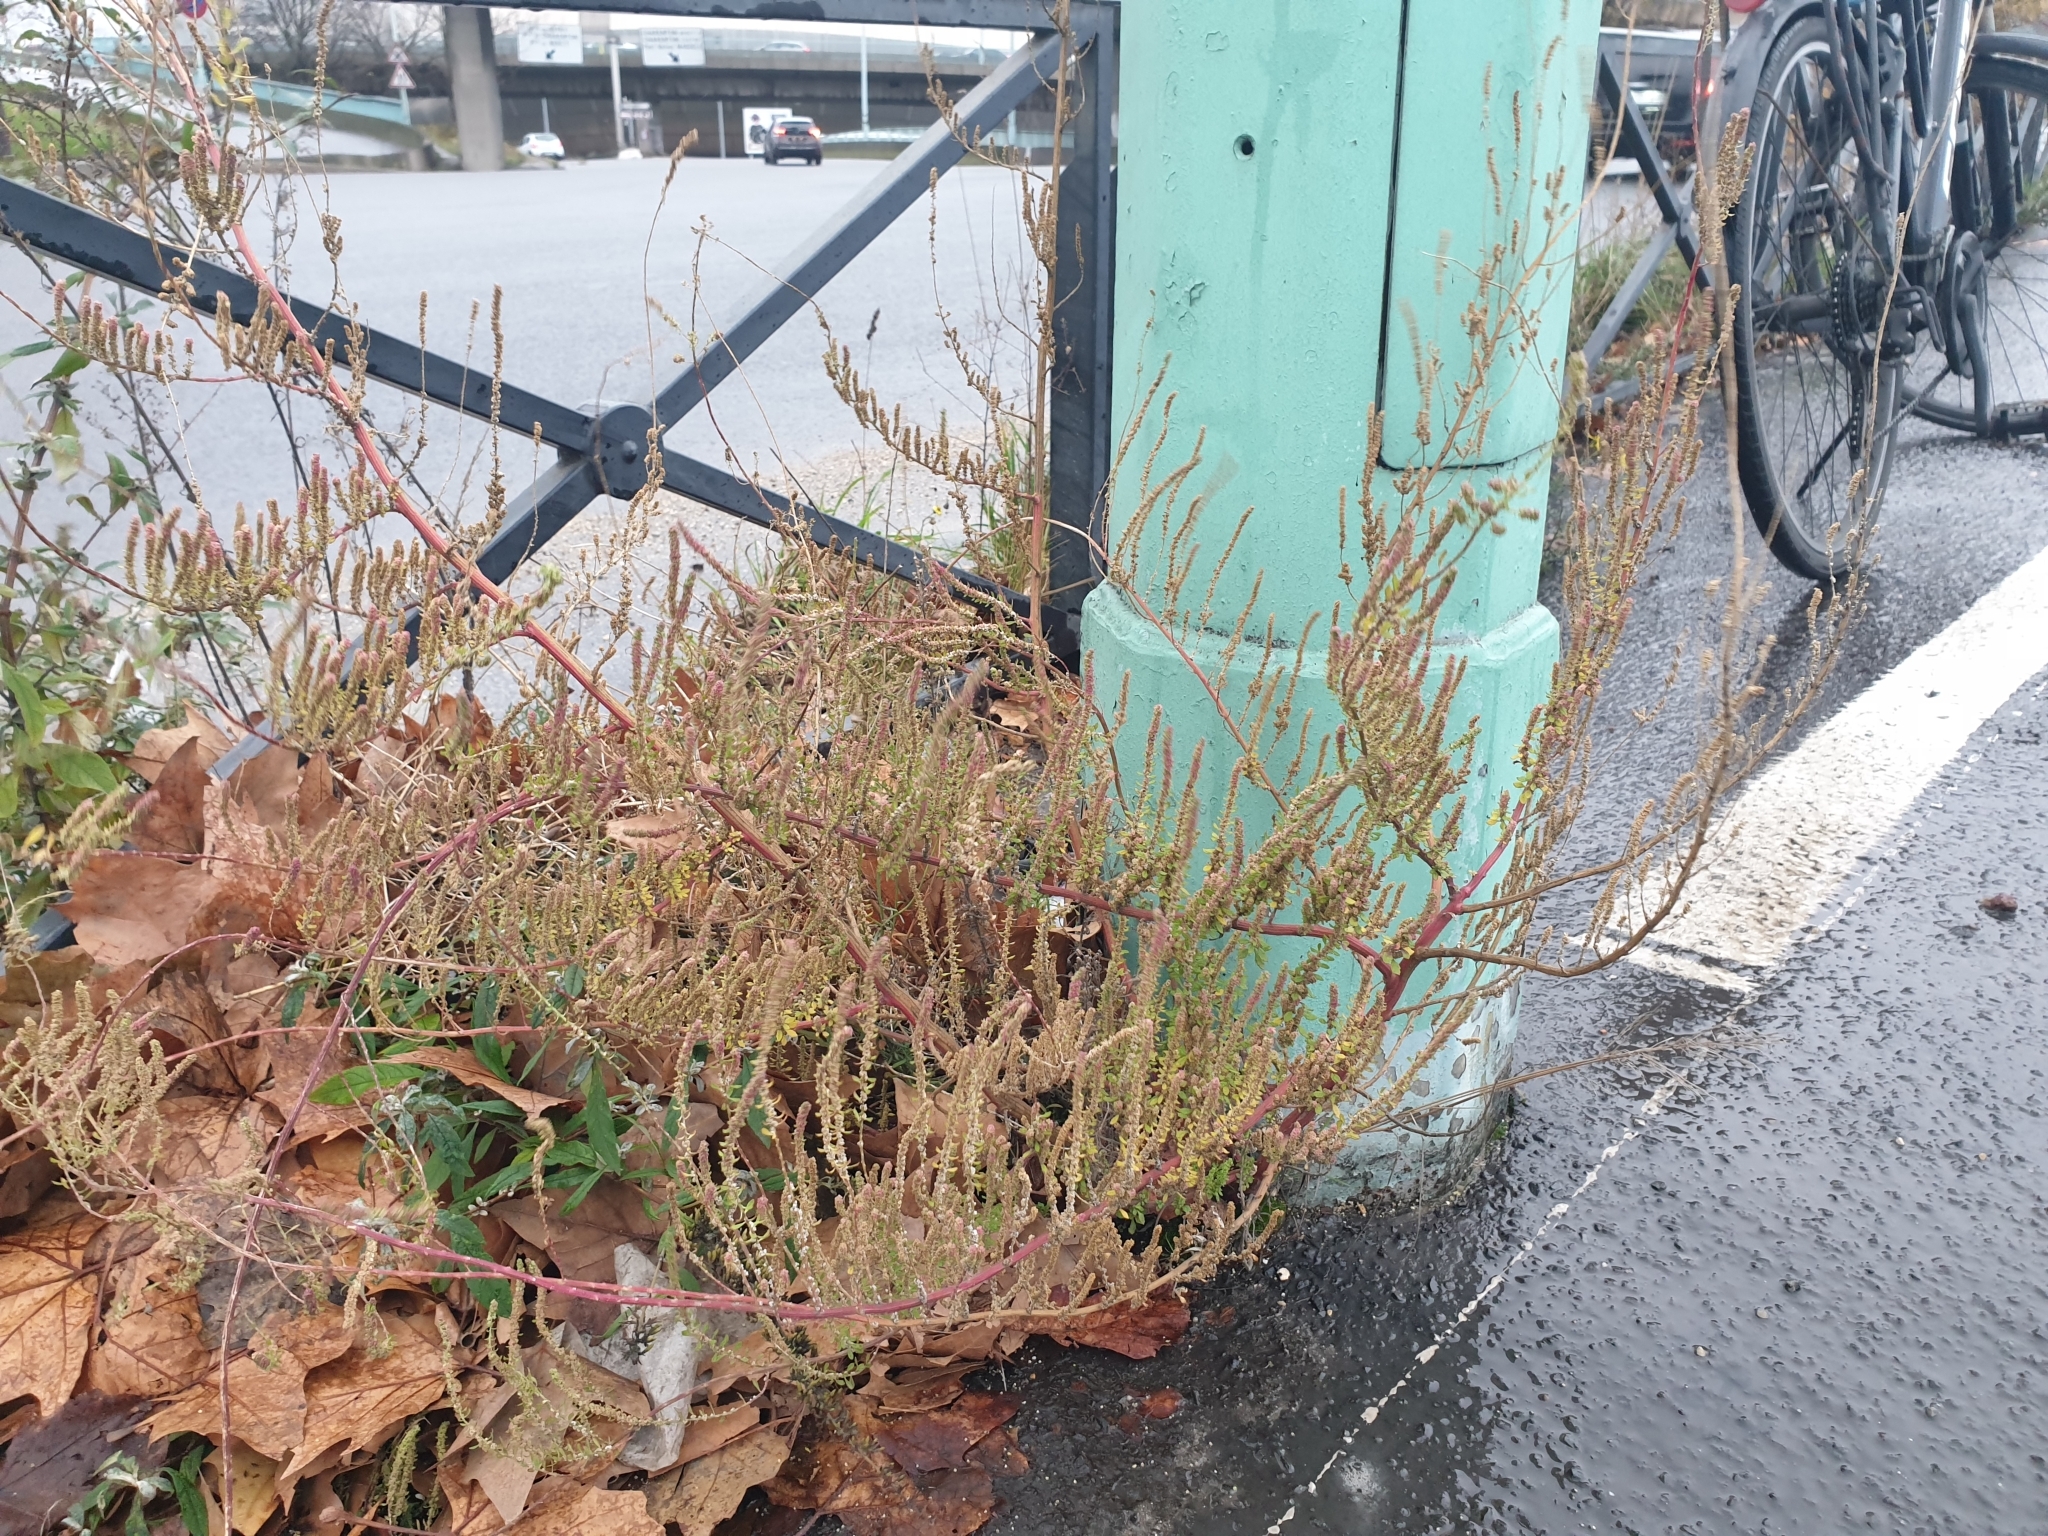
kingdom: Plantae
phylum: Tracheophyta
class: Magnoliopsida
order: Caryophyllales
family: Amaranthaceae
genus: Dysphania
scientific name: Dysphania ambrosioides
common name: Wormseed
